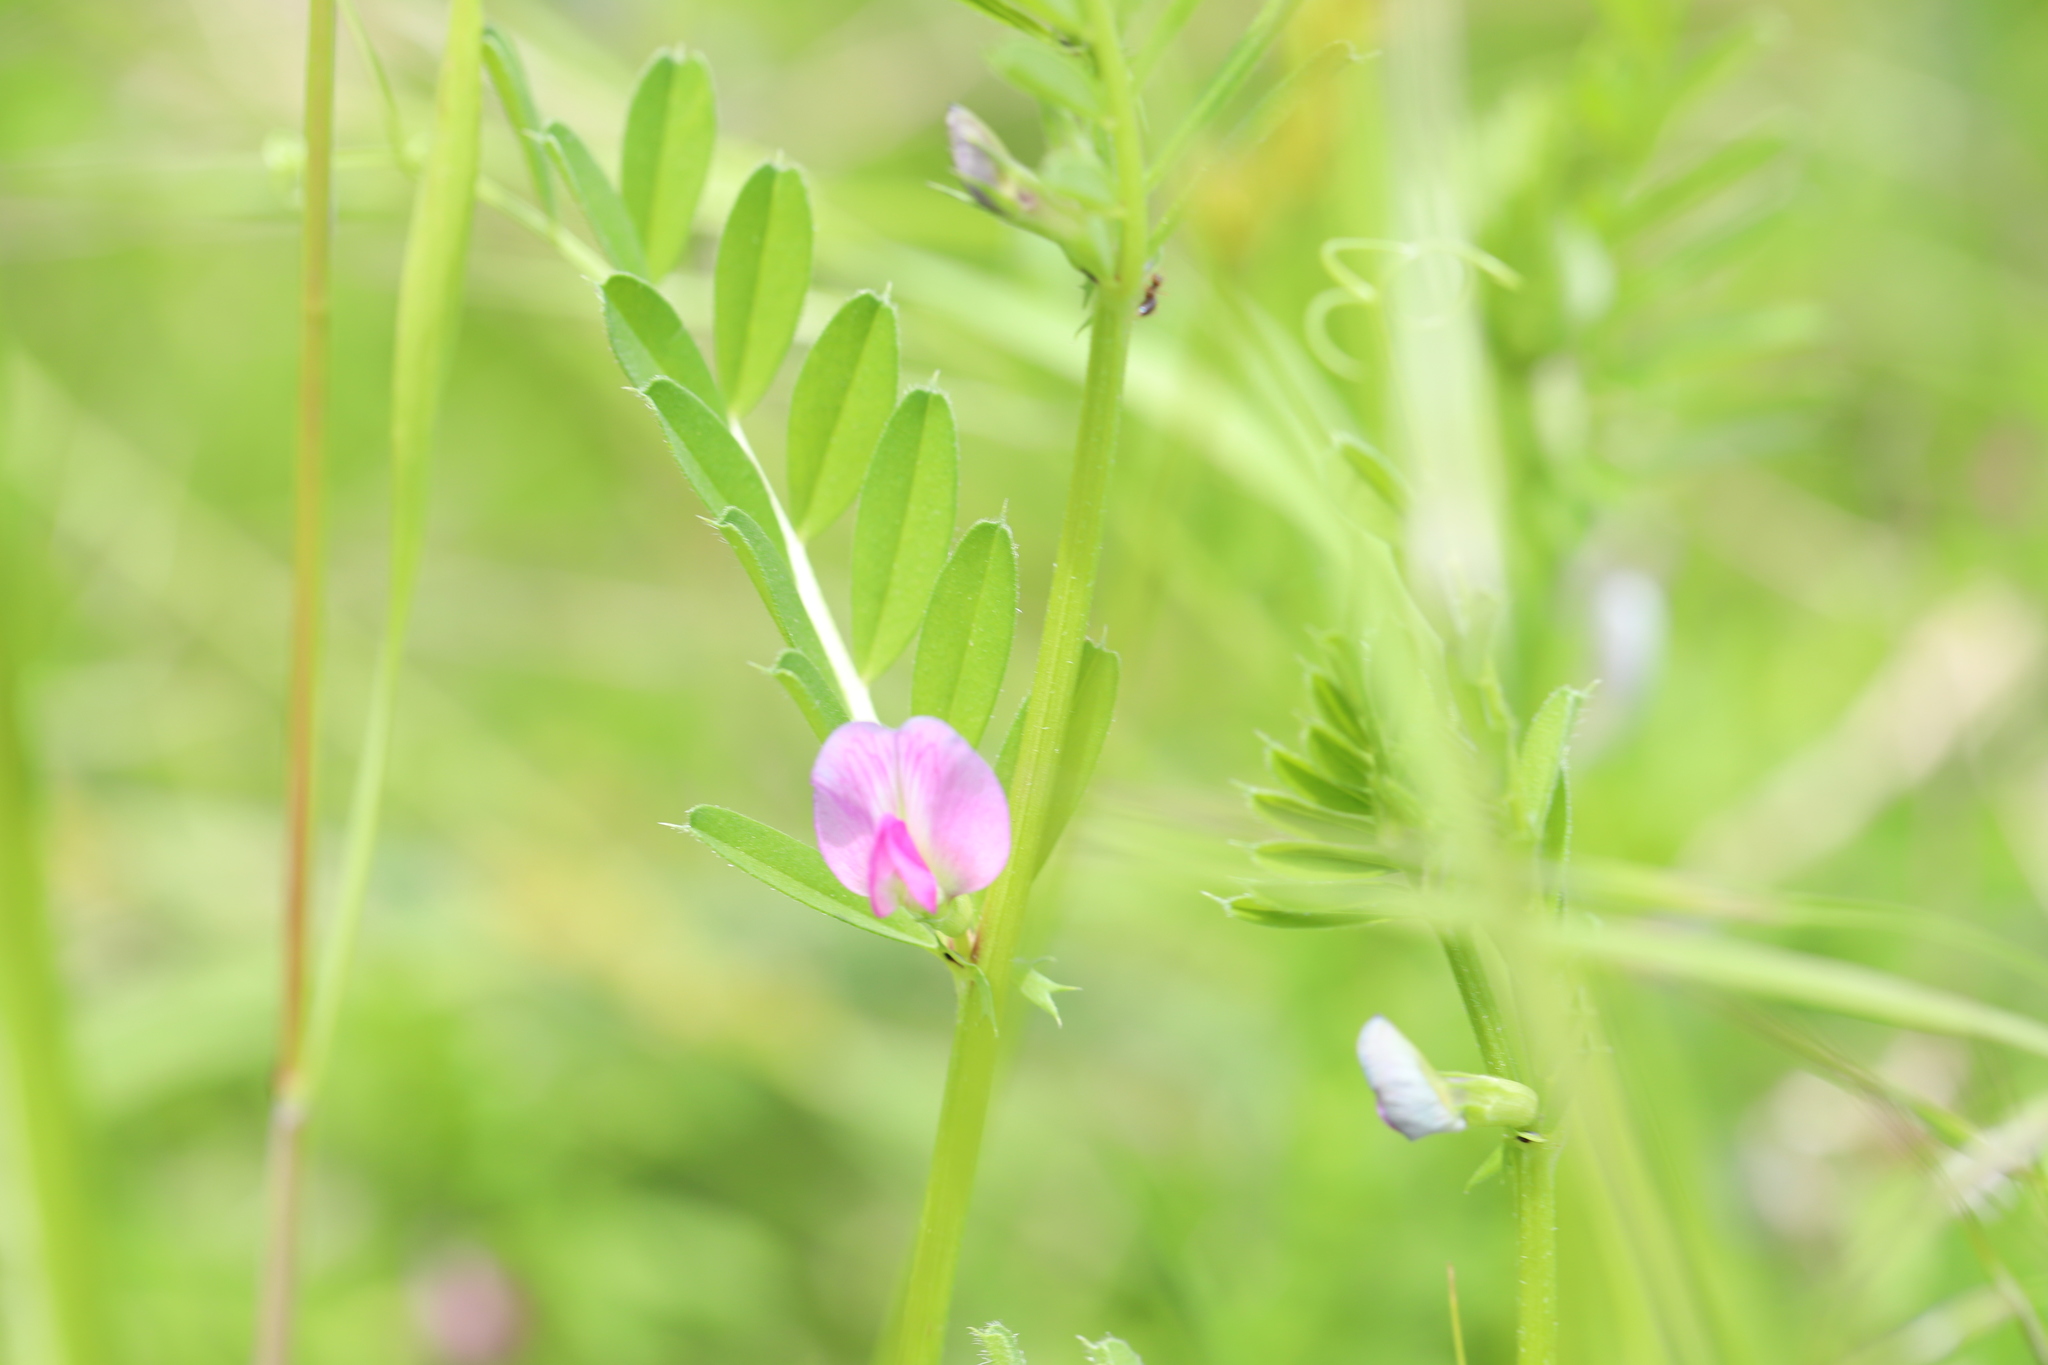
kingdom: Plantae
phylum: Tracheophyta
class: Magnoliopsida
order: Fabales
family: Fabaceae
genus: Vicia
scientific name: Vicia sativa
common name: Garden vetch
